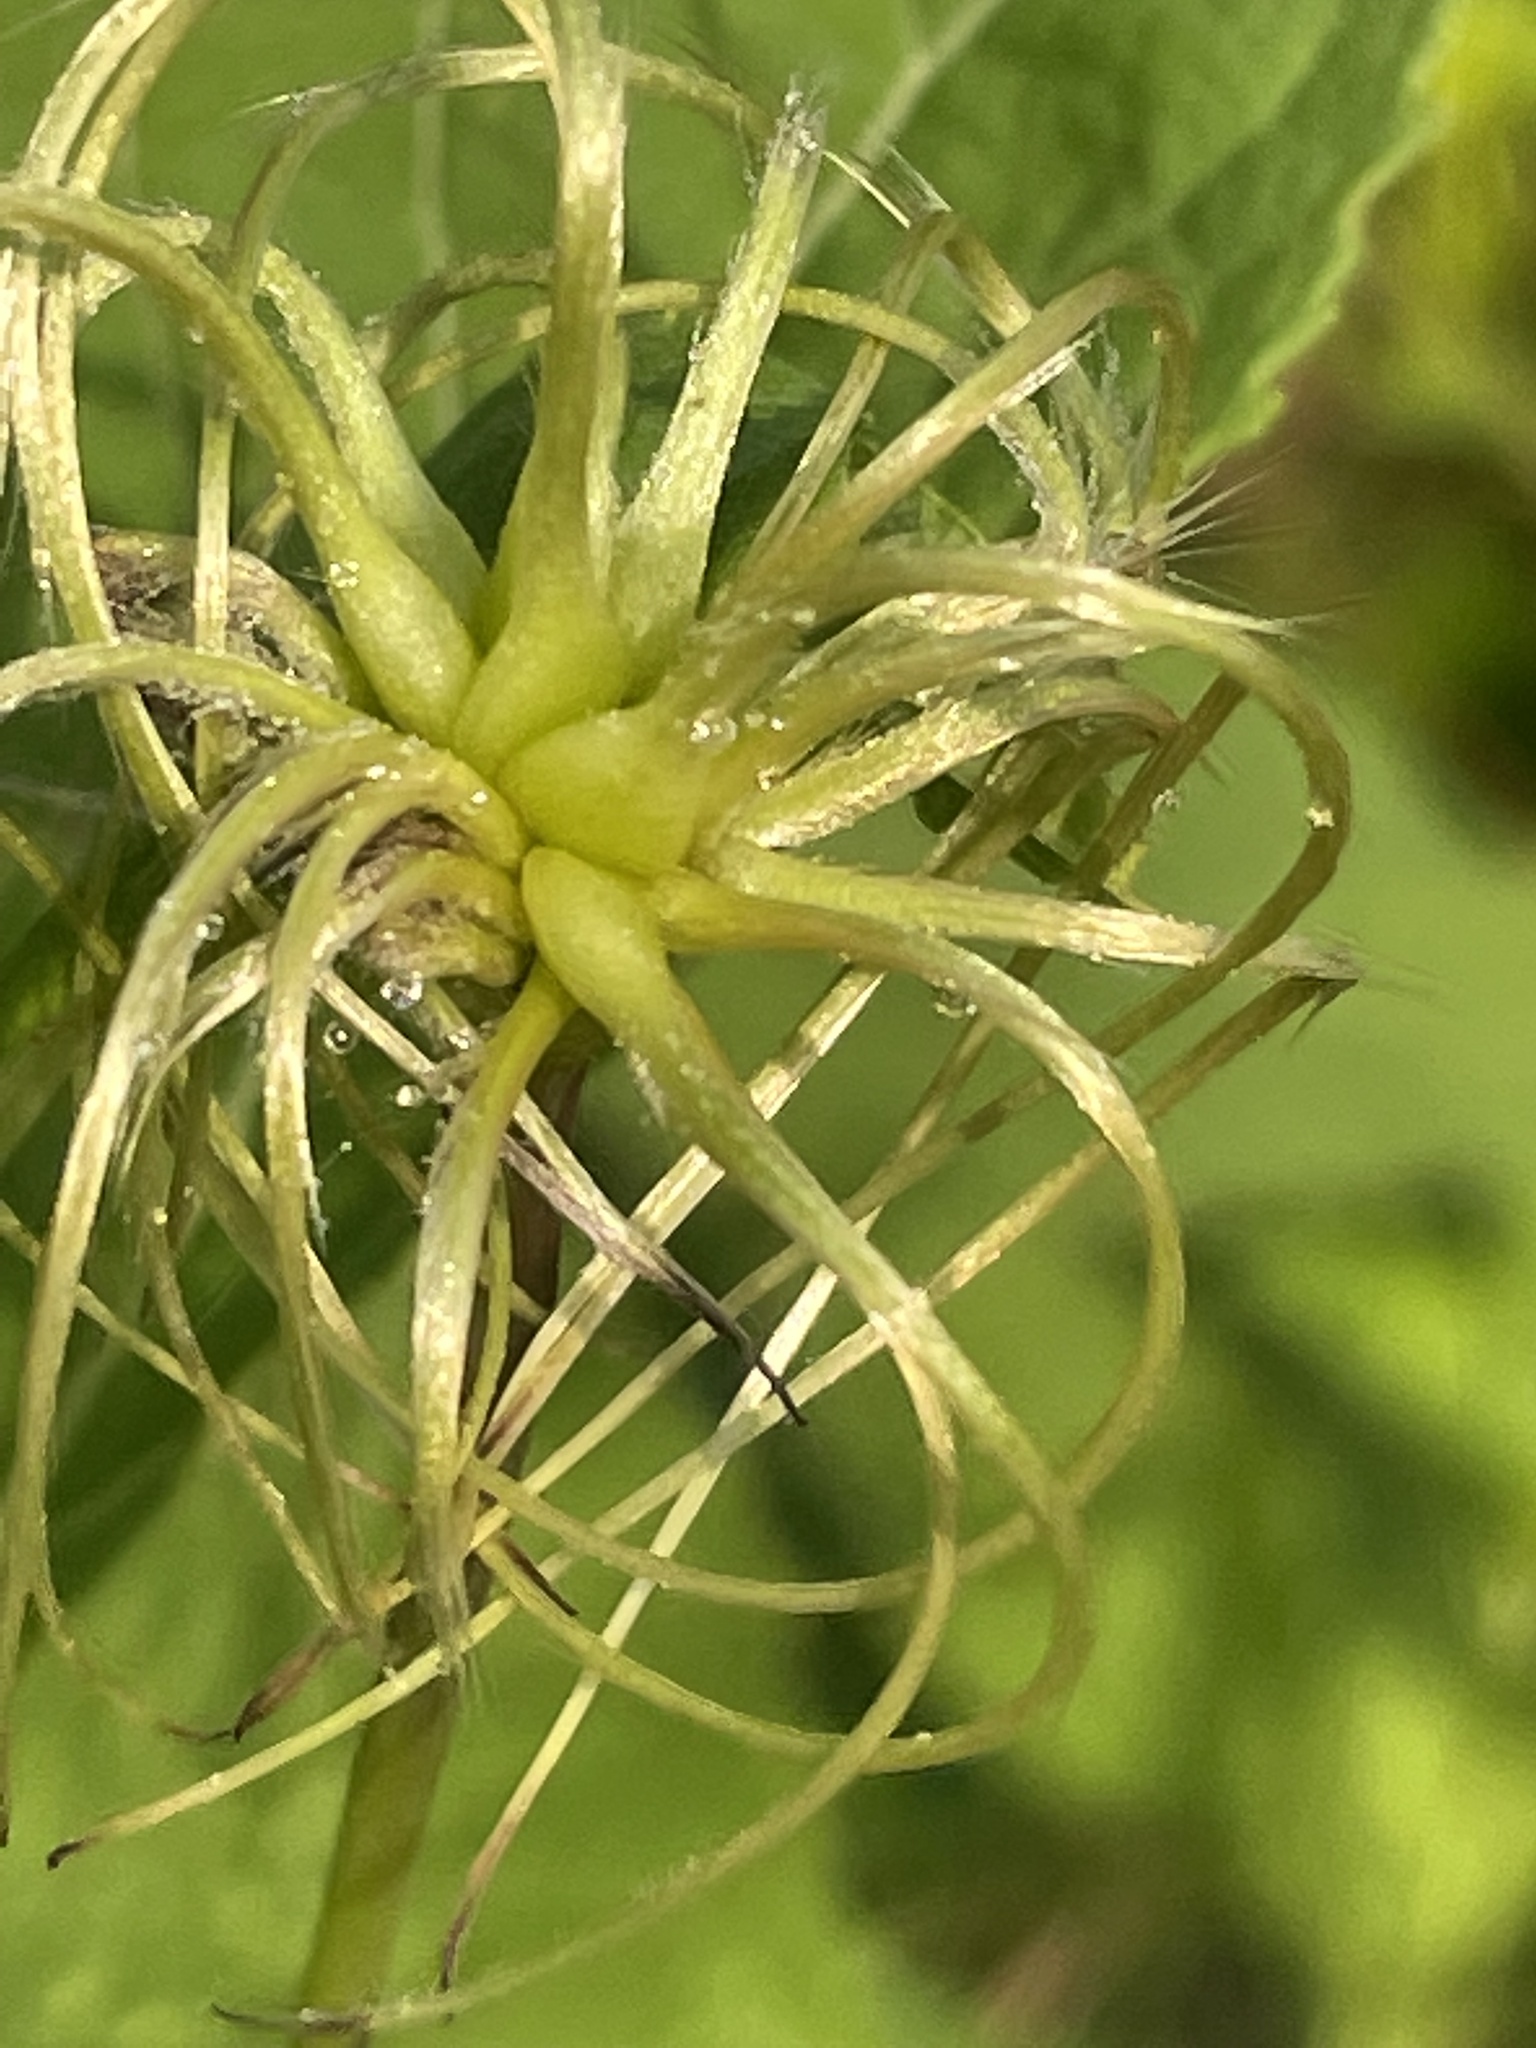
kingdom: Plantae
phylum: Tracheophyta
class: Magnoliopsida
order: Ranunculales
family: Ranunculaceae
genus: Clematis
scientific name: Clematis viorna
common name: Leather-flower
